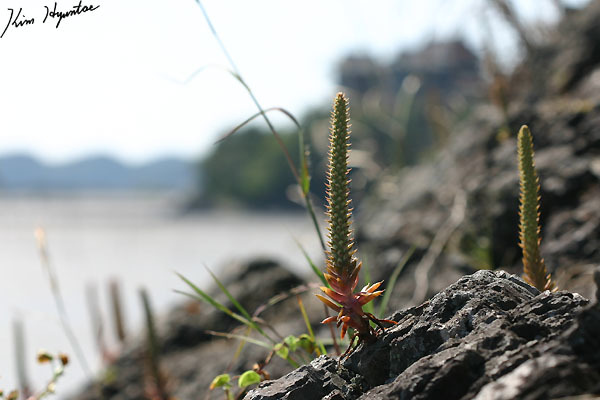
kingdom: Plantae
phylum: Tracheophyta
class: Magnoliopsida
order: Saxifragales
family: Crassulaceae
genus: Orostachys
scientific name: Orostachys japonica
